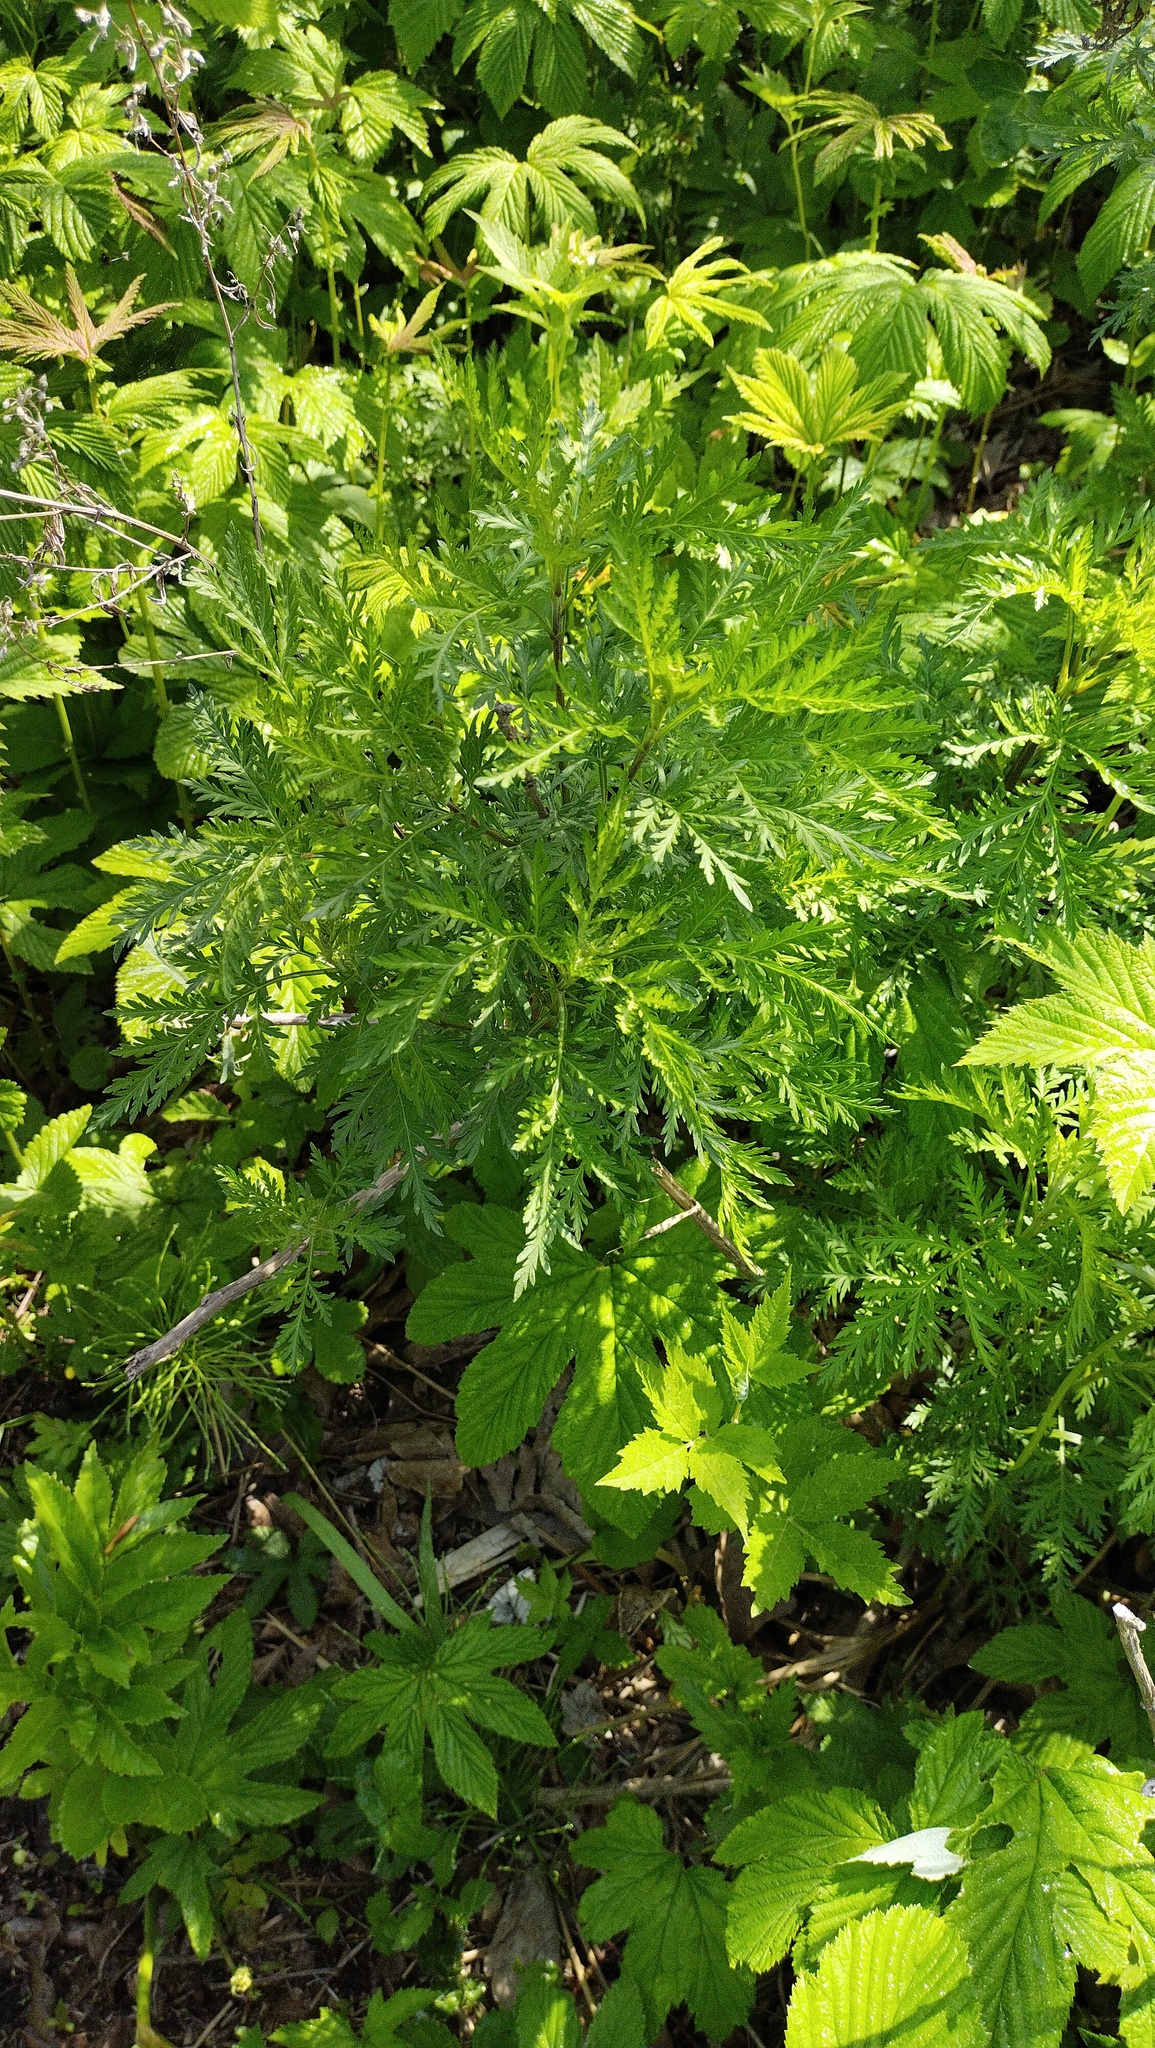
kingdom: Plantae
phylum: Tracheophyta
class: Magnoliopsida
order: Asterales
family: Asteraceae
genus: Artemisia
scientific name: Artemisia gmelinii
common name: Gmelin's wormwood
